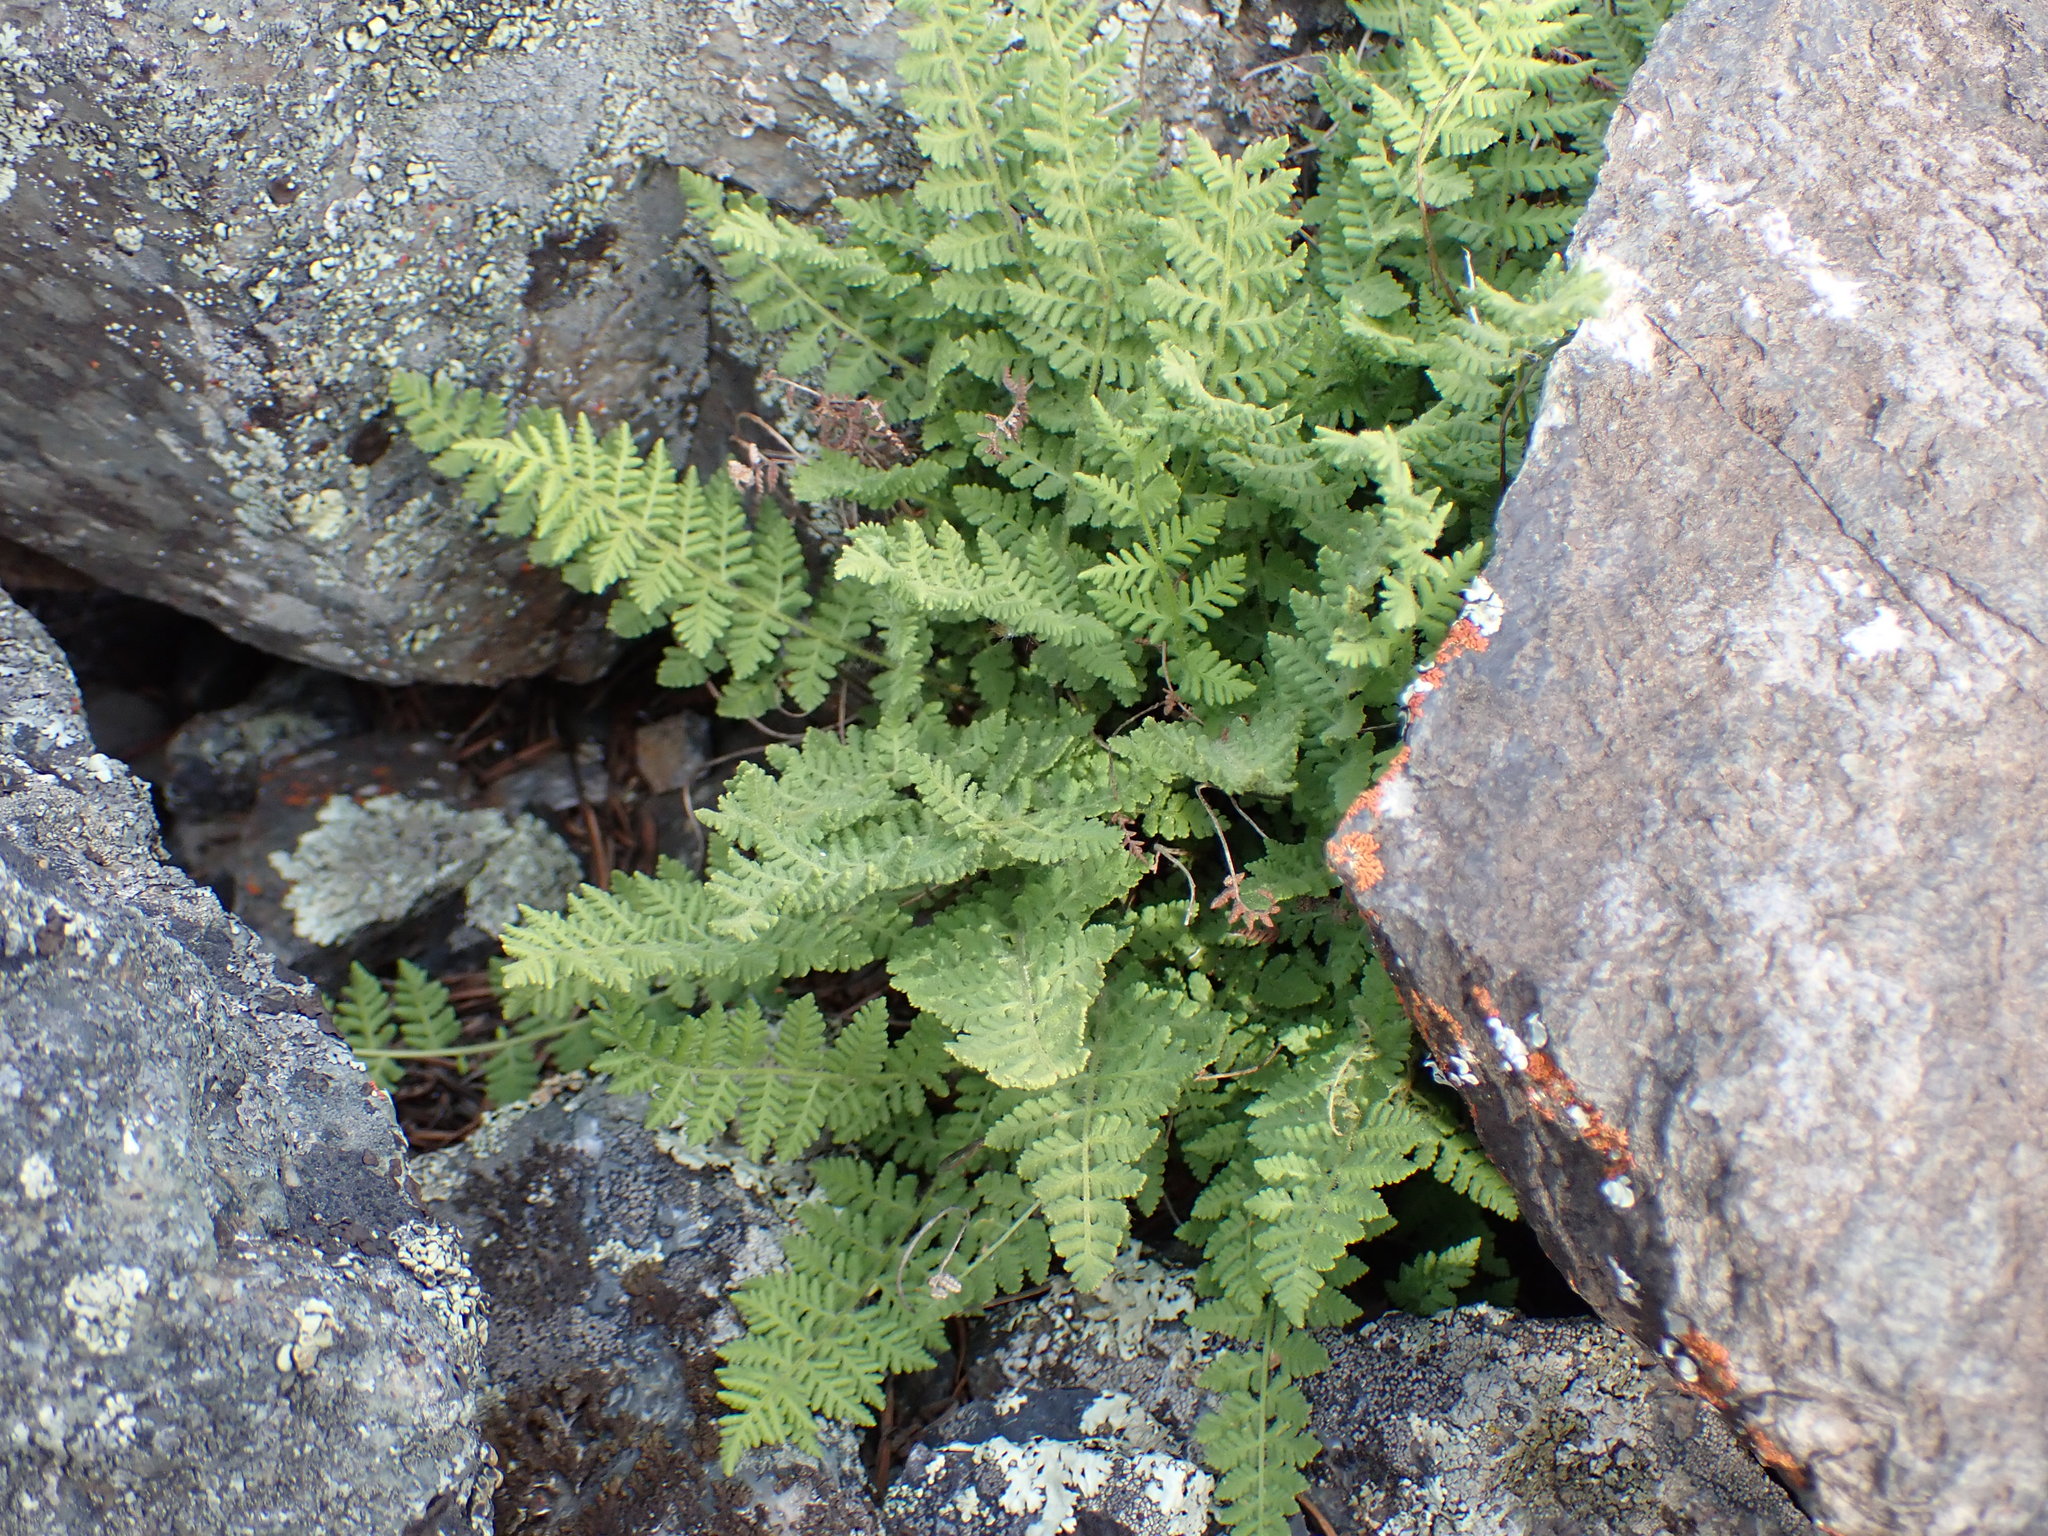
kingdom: Plantae
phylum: Tracheophyta
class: Polypodiopsida
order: Polypodiales
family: Woodsiaceae
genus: Physematium
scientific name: Physematium scopulinum
